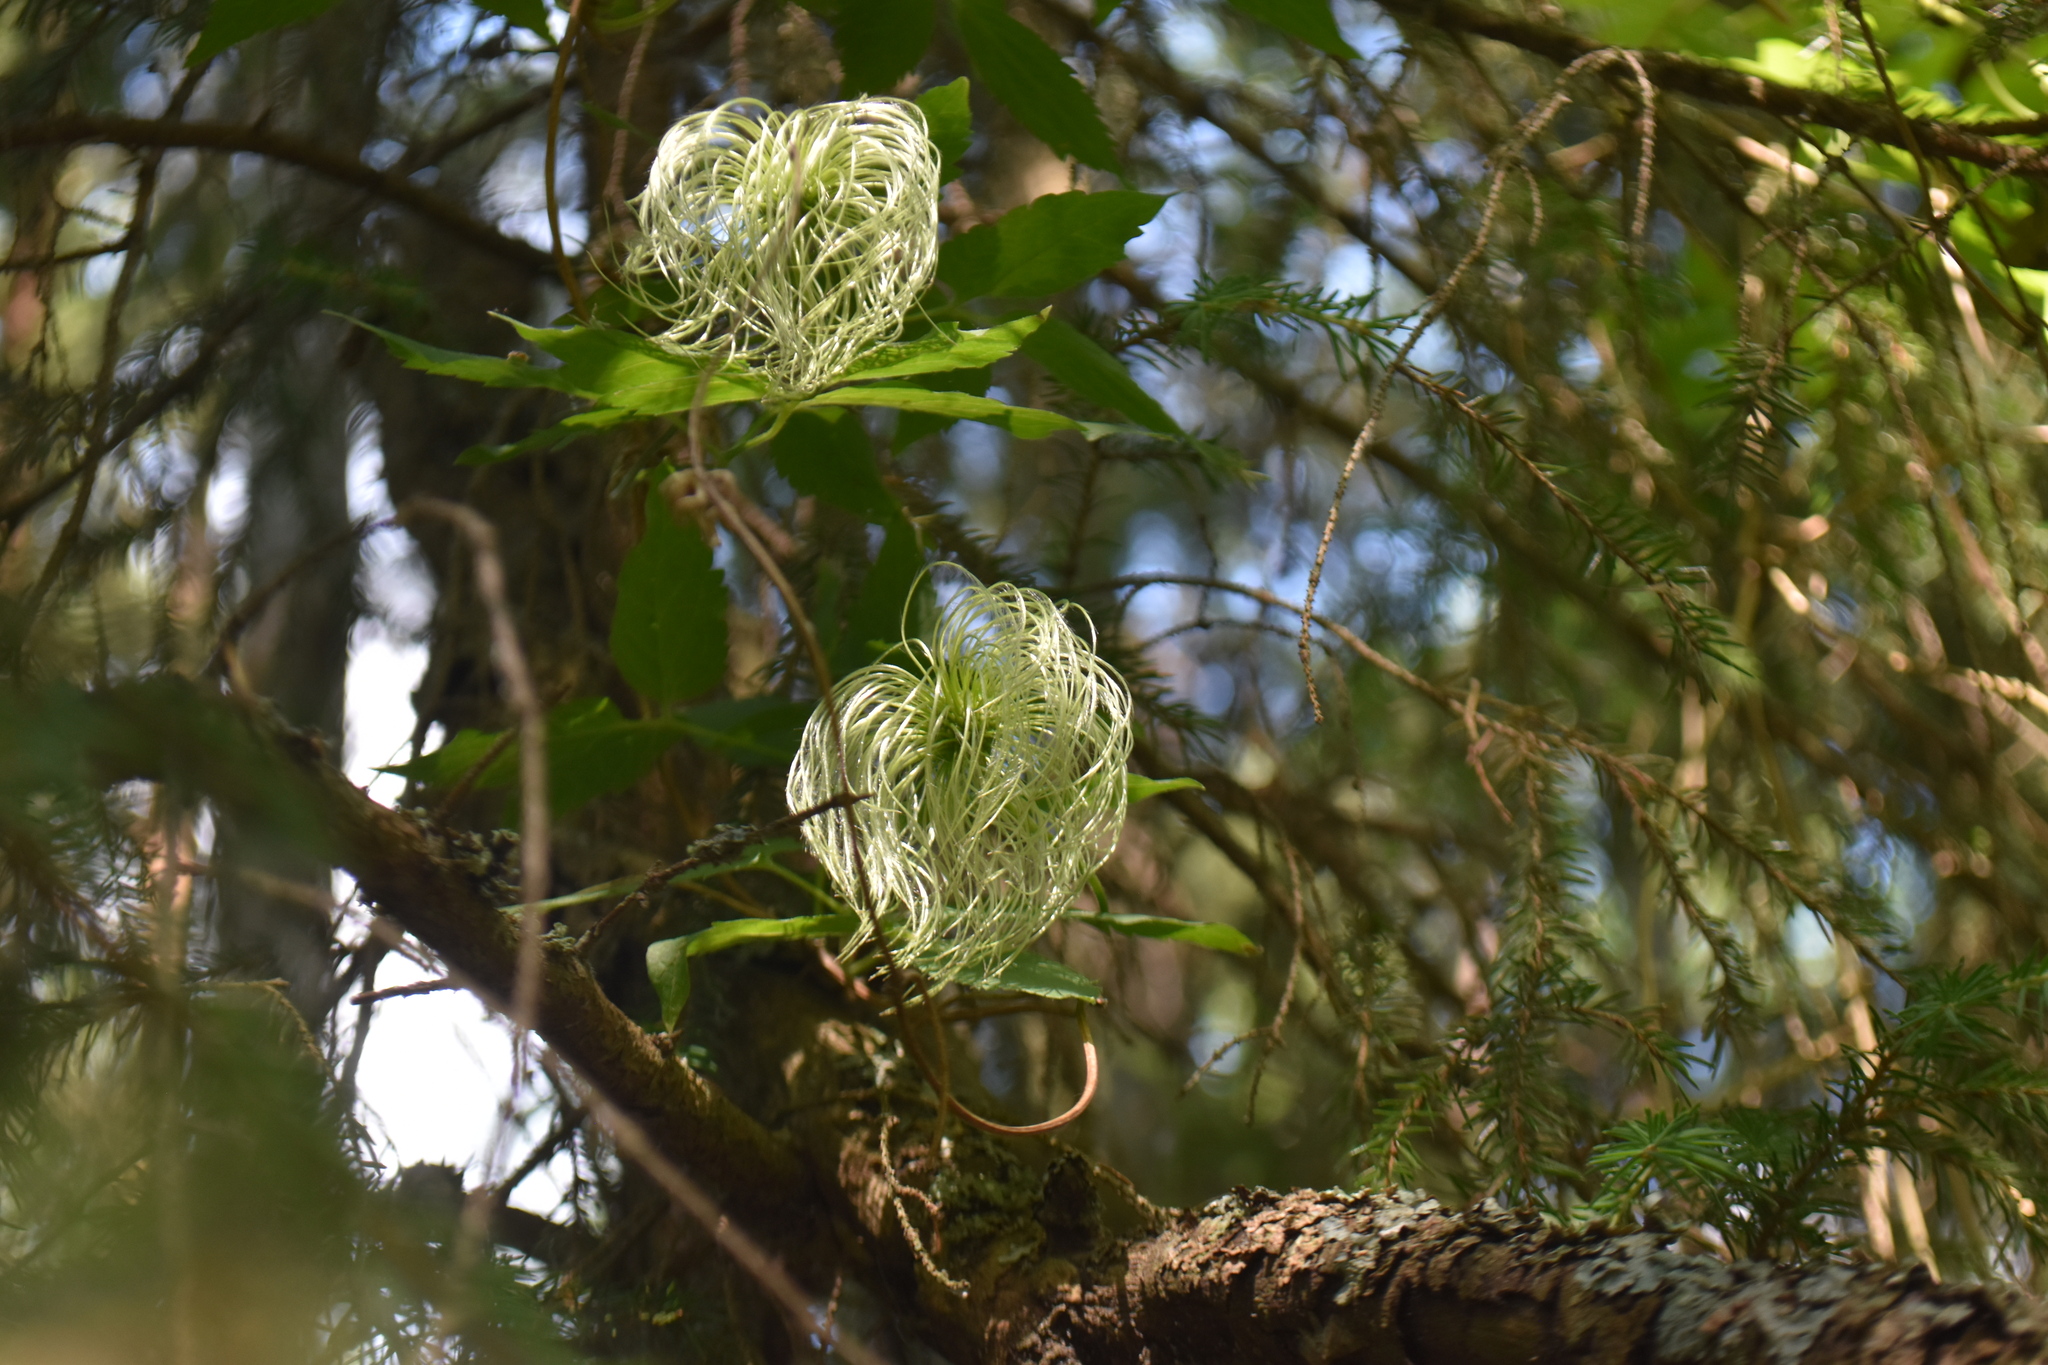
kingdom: Plantae
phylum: Tracheophyta
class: Magnoliopsida
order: Ranunculales
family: Ranunculaceae
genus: Clematis
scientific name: Clematis sibirica
